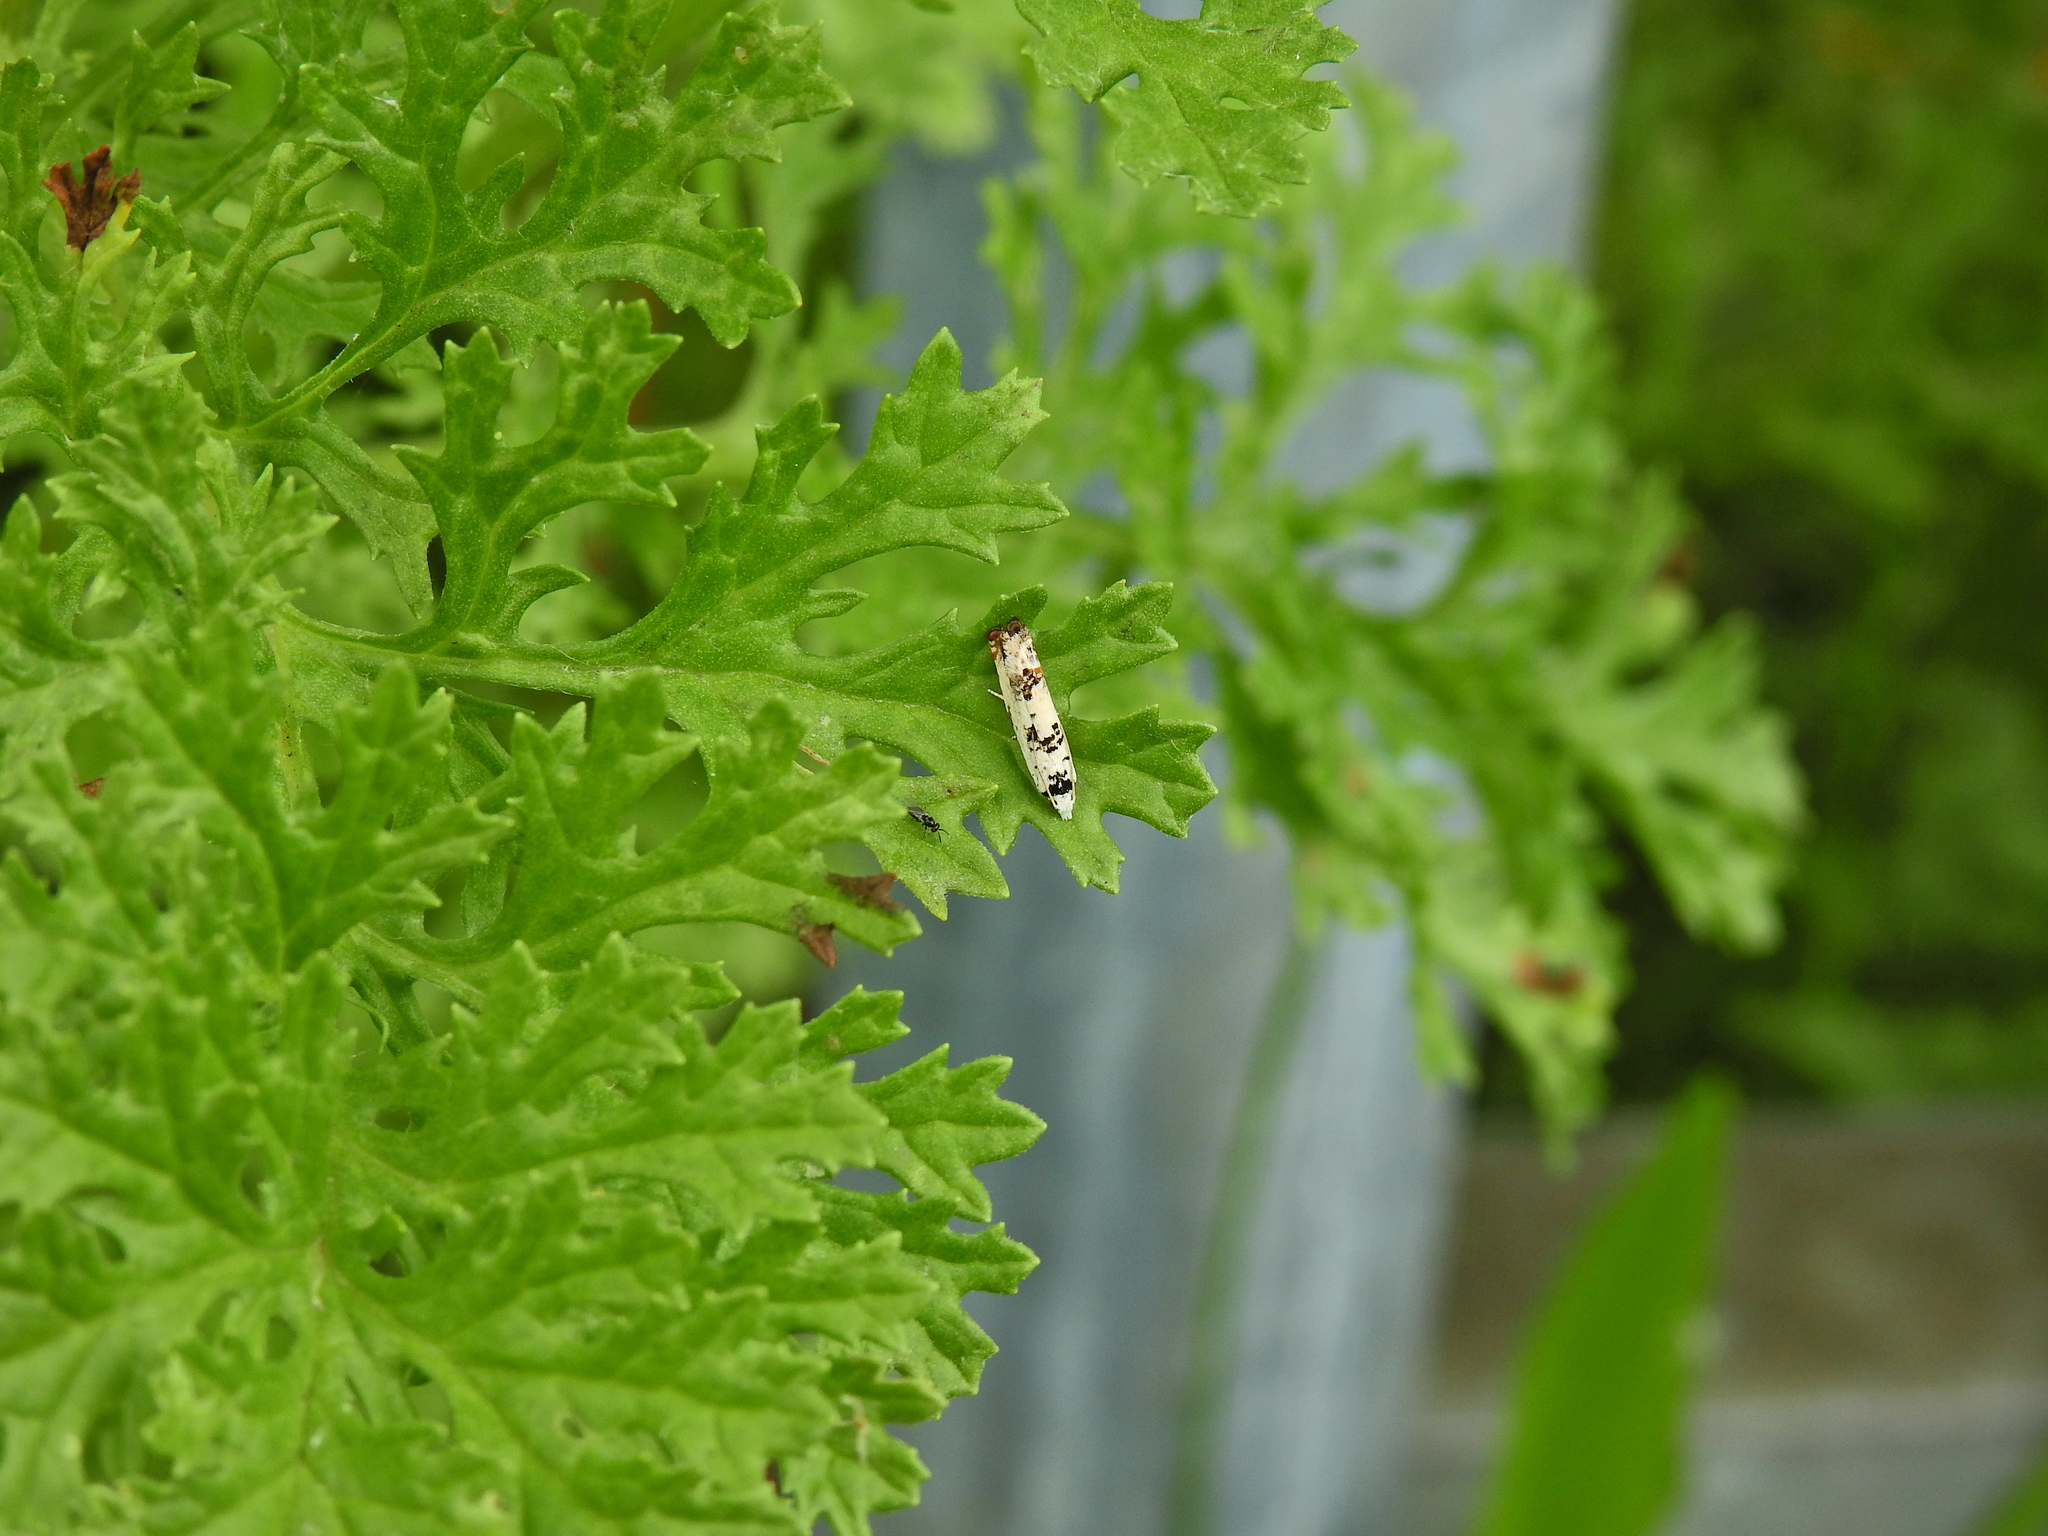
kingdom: Animalia
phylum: Arthropoda
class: Insecta
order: Lepidoptera
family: Tortricidae
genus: Eucosma
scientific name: Eucosma campoliliana
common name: Marbled bell
